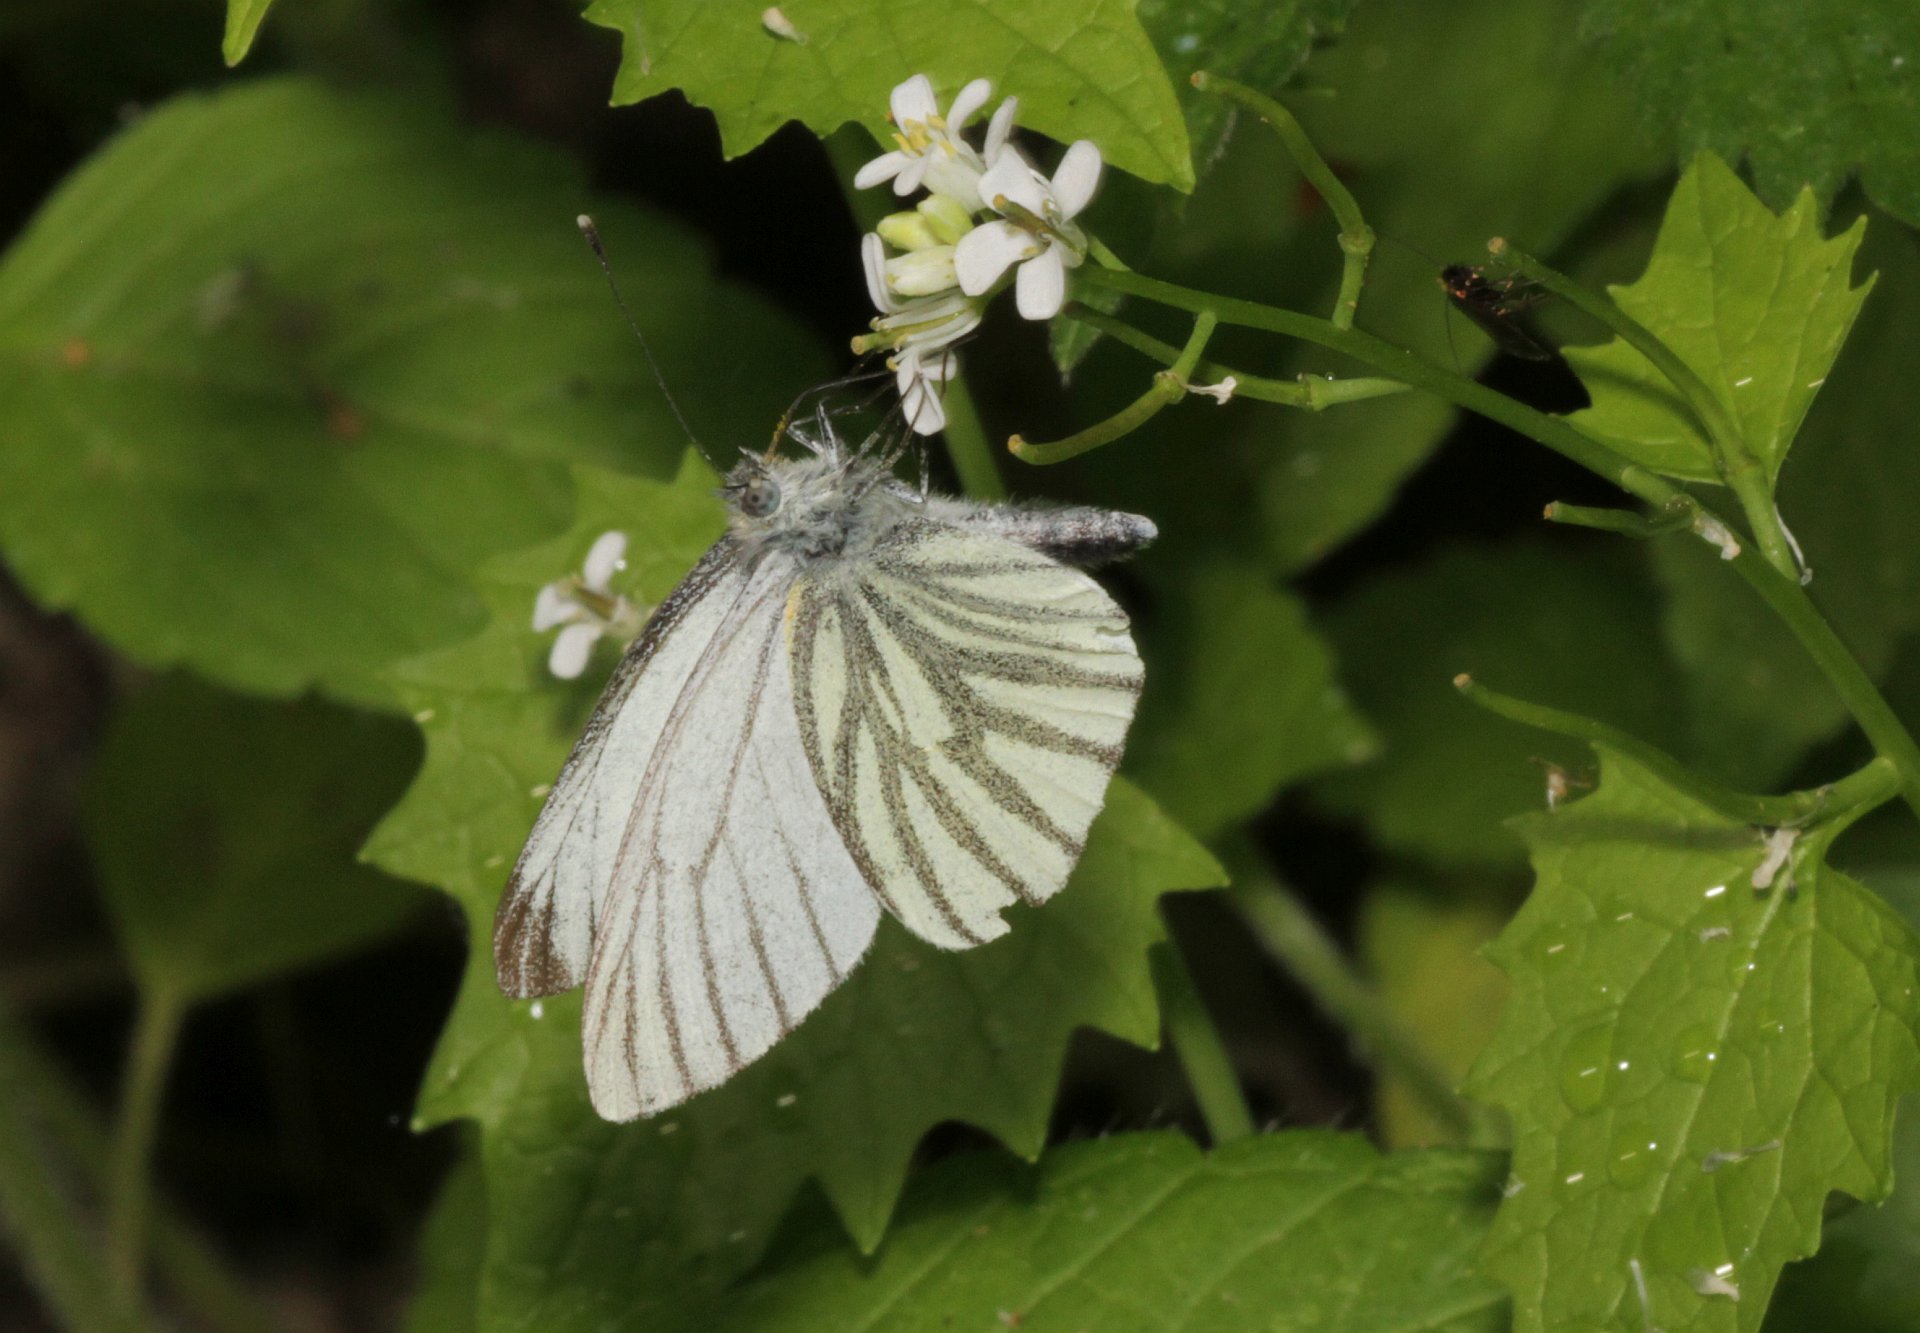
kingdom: Animalia
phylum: Arthropoda
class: Insecta
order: Lepidoptera
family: Pieridae
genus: Pieris
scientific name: Pieris napi
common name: Green-veined white
